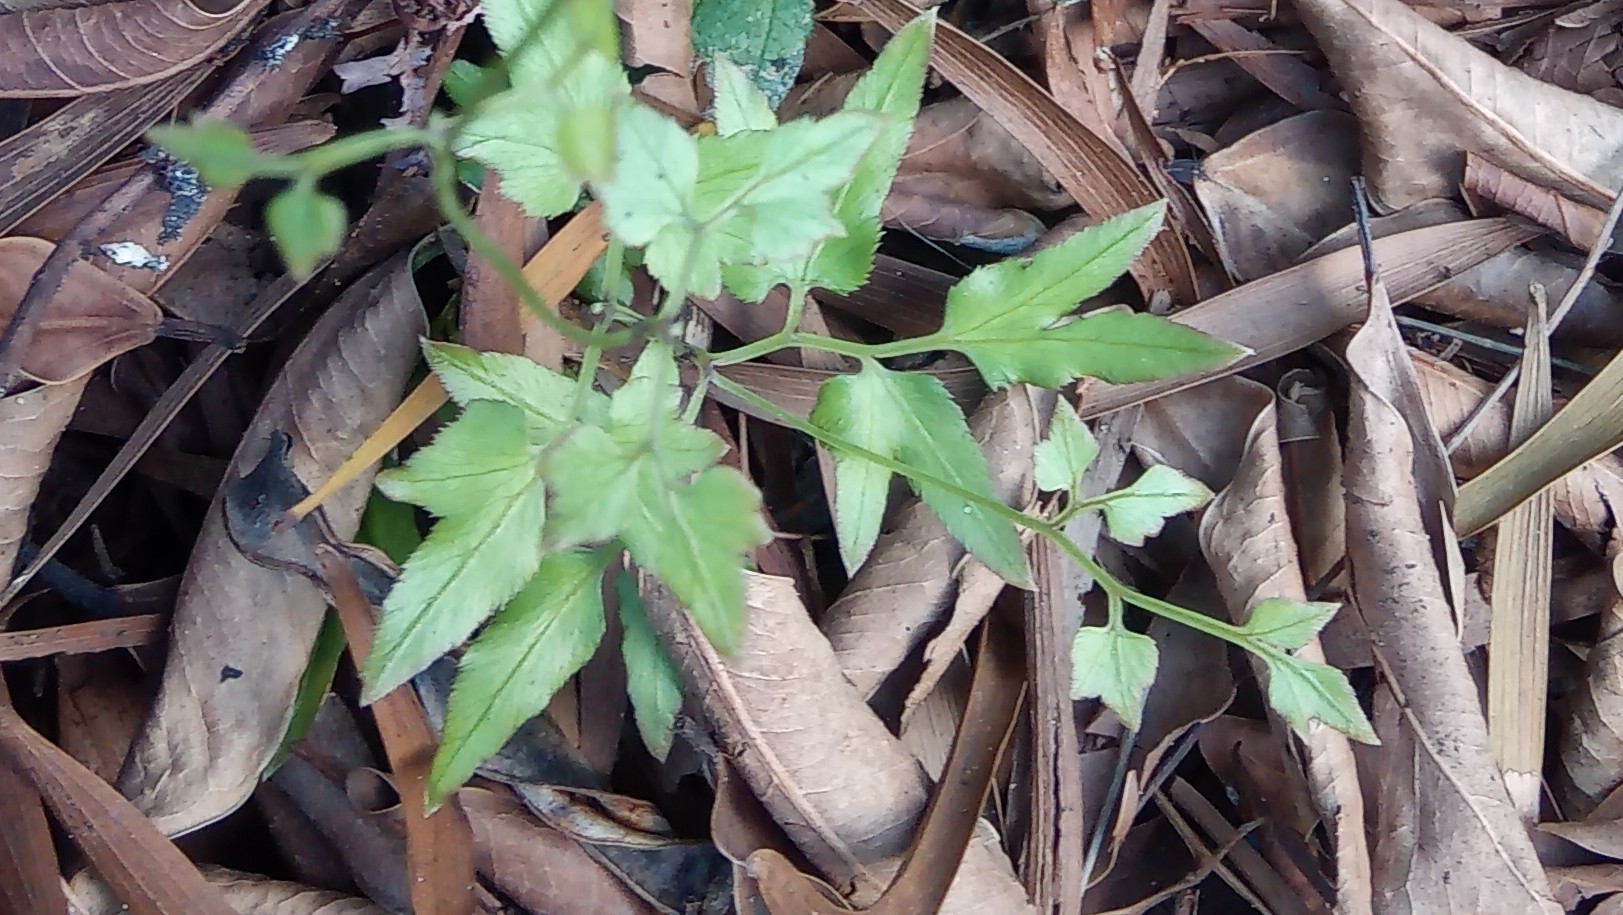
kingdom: Plantae
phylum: Tracheophyta
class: Polypodiopsida
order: Schizaeales
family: Lygodiaceae
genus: Lygodium
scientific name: Lygodium japonicum
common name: Japanese climbing fern
